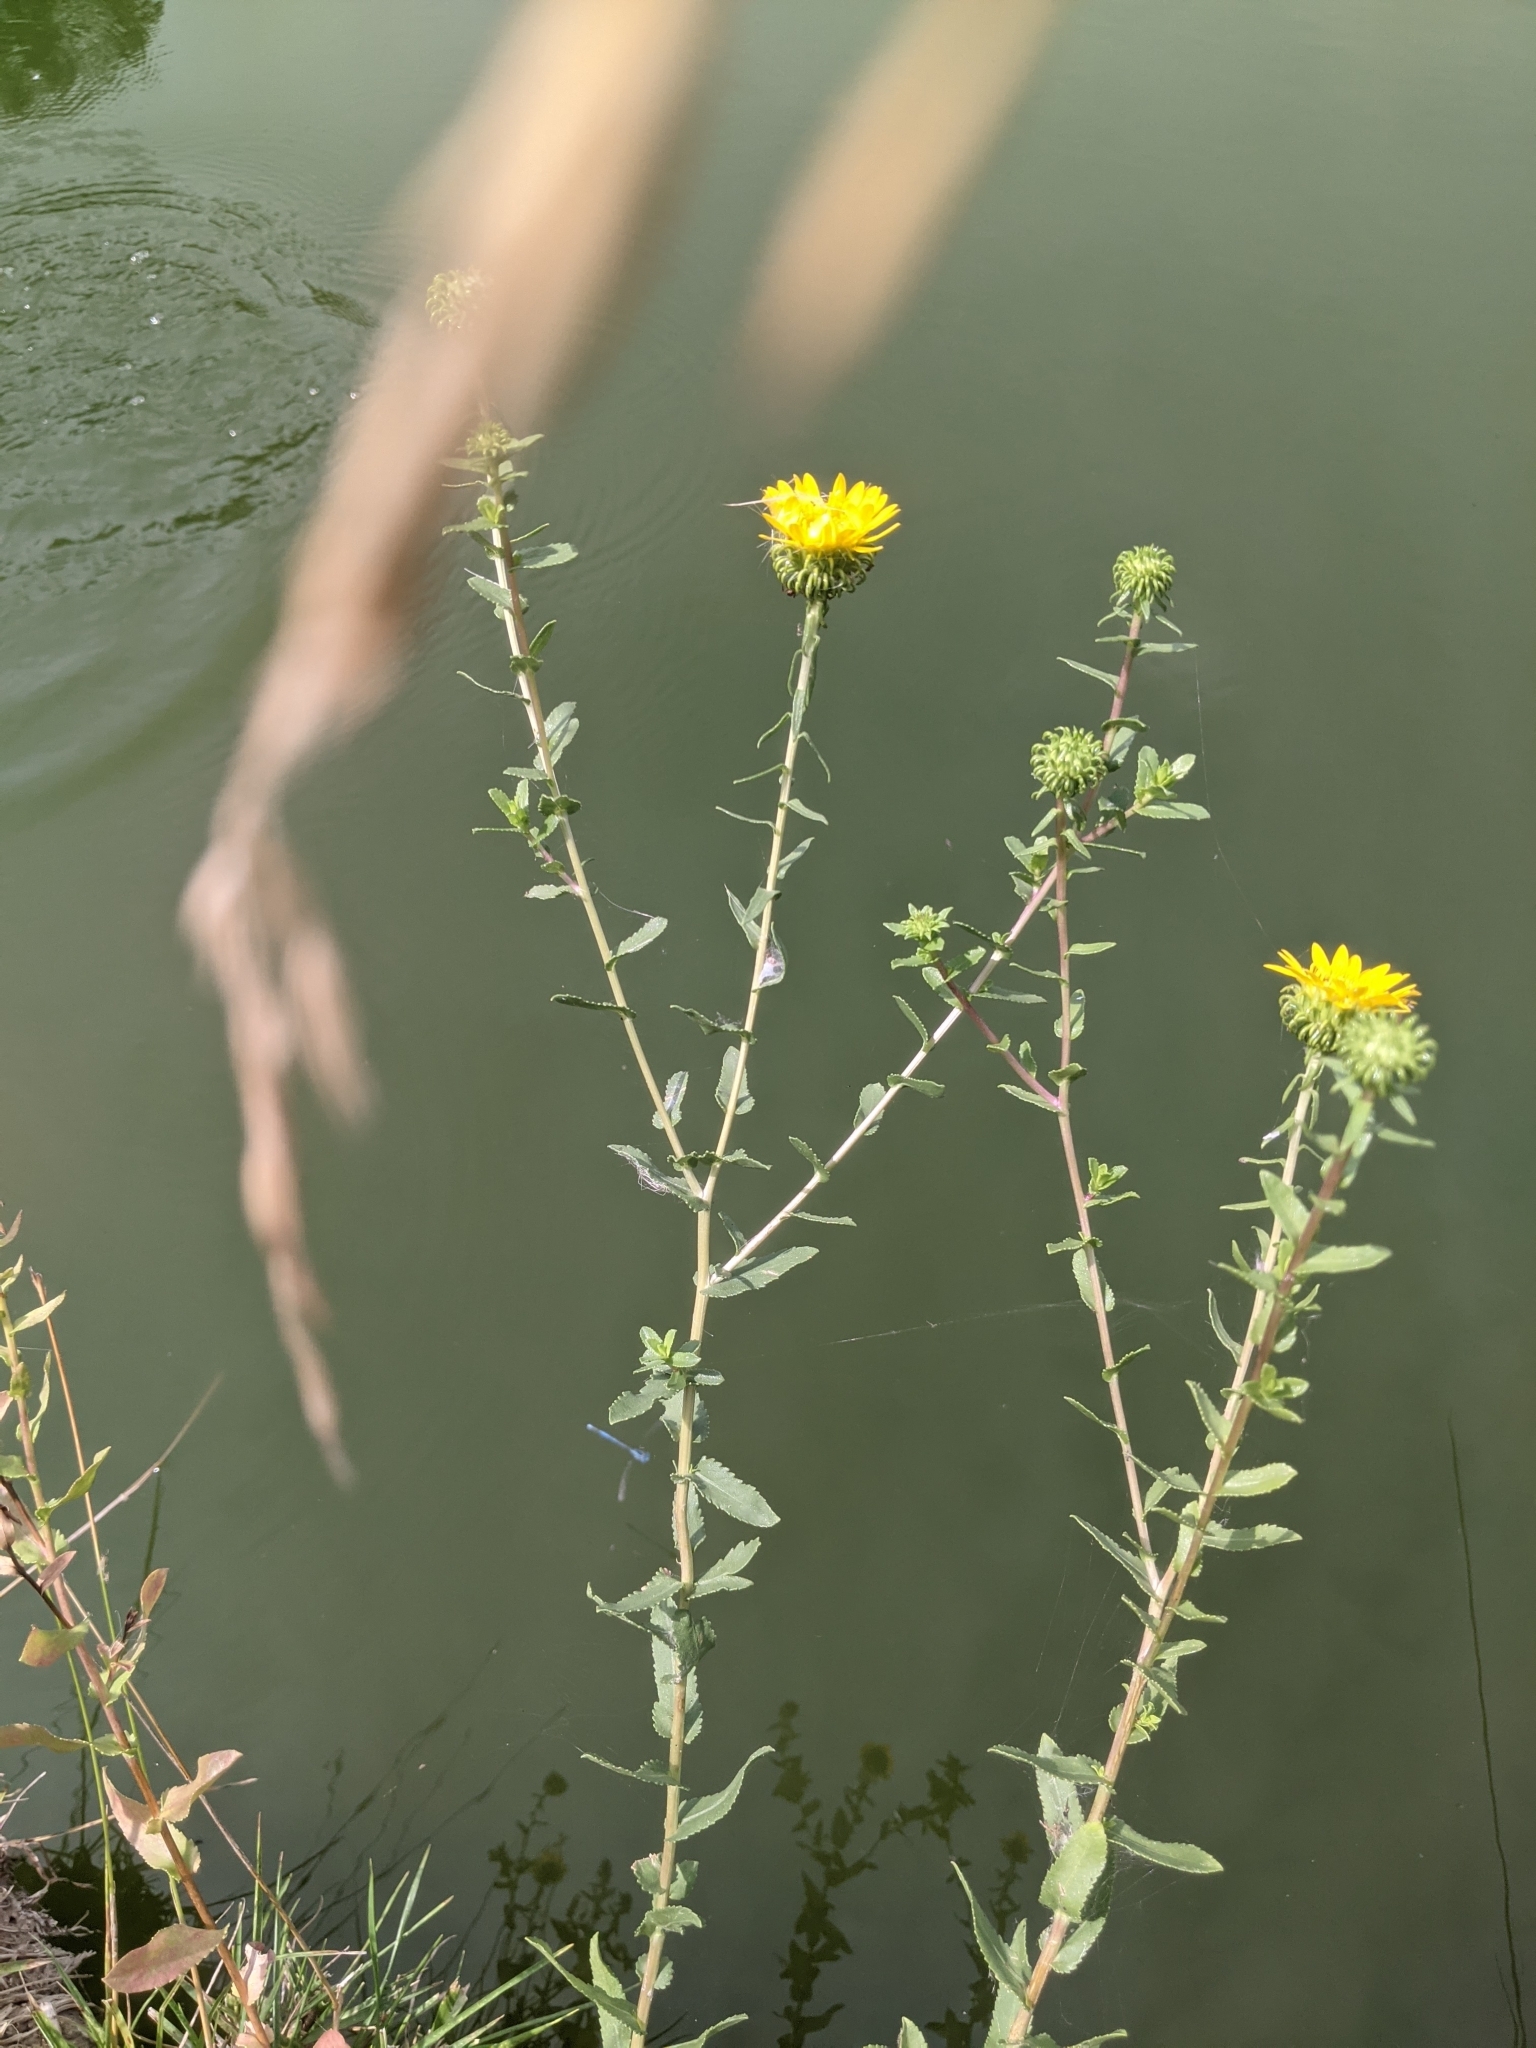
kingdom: Plantae
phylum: Tracheophyta
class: Magnoliopsida
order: Asterales
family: Asteraceae
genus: Grindelia
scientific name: Grindelia squarrosa
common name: Curly-cup gumweed
